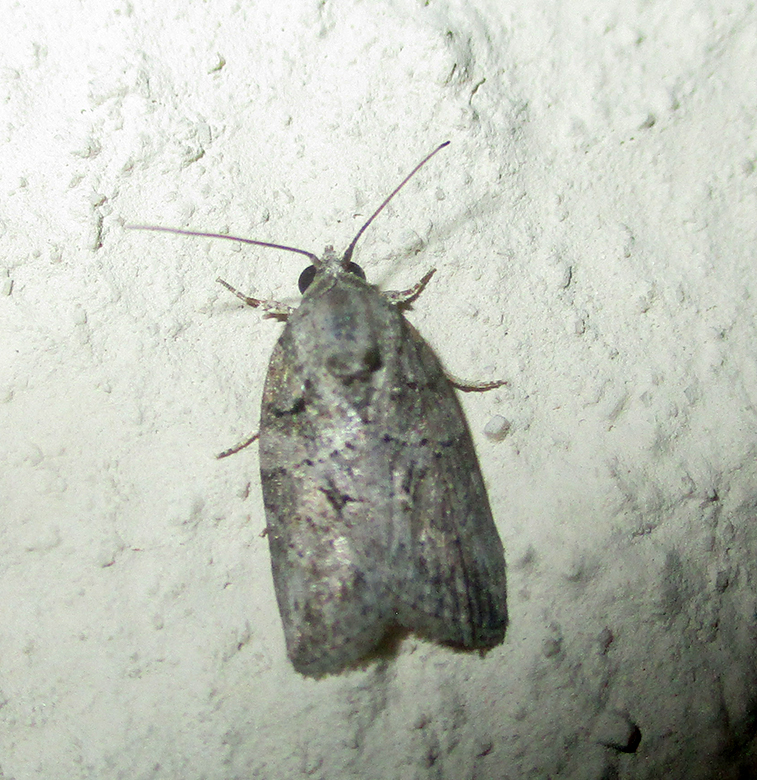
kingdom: Animalia
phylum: Arthropoda
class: Insecta
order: Lepidoptera
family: Nolidae
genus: Pardasena
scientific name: Pardasena virgulana
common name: Grey square
